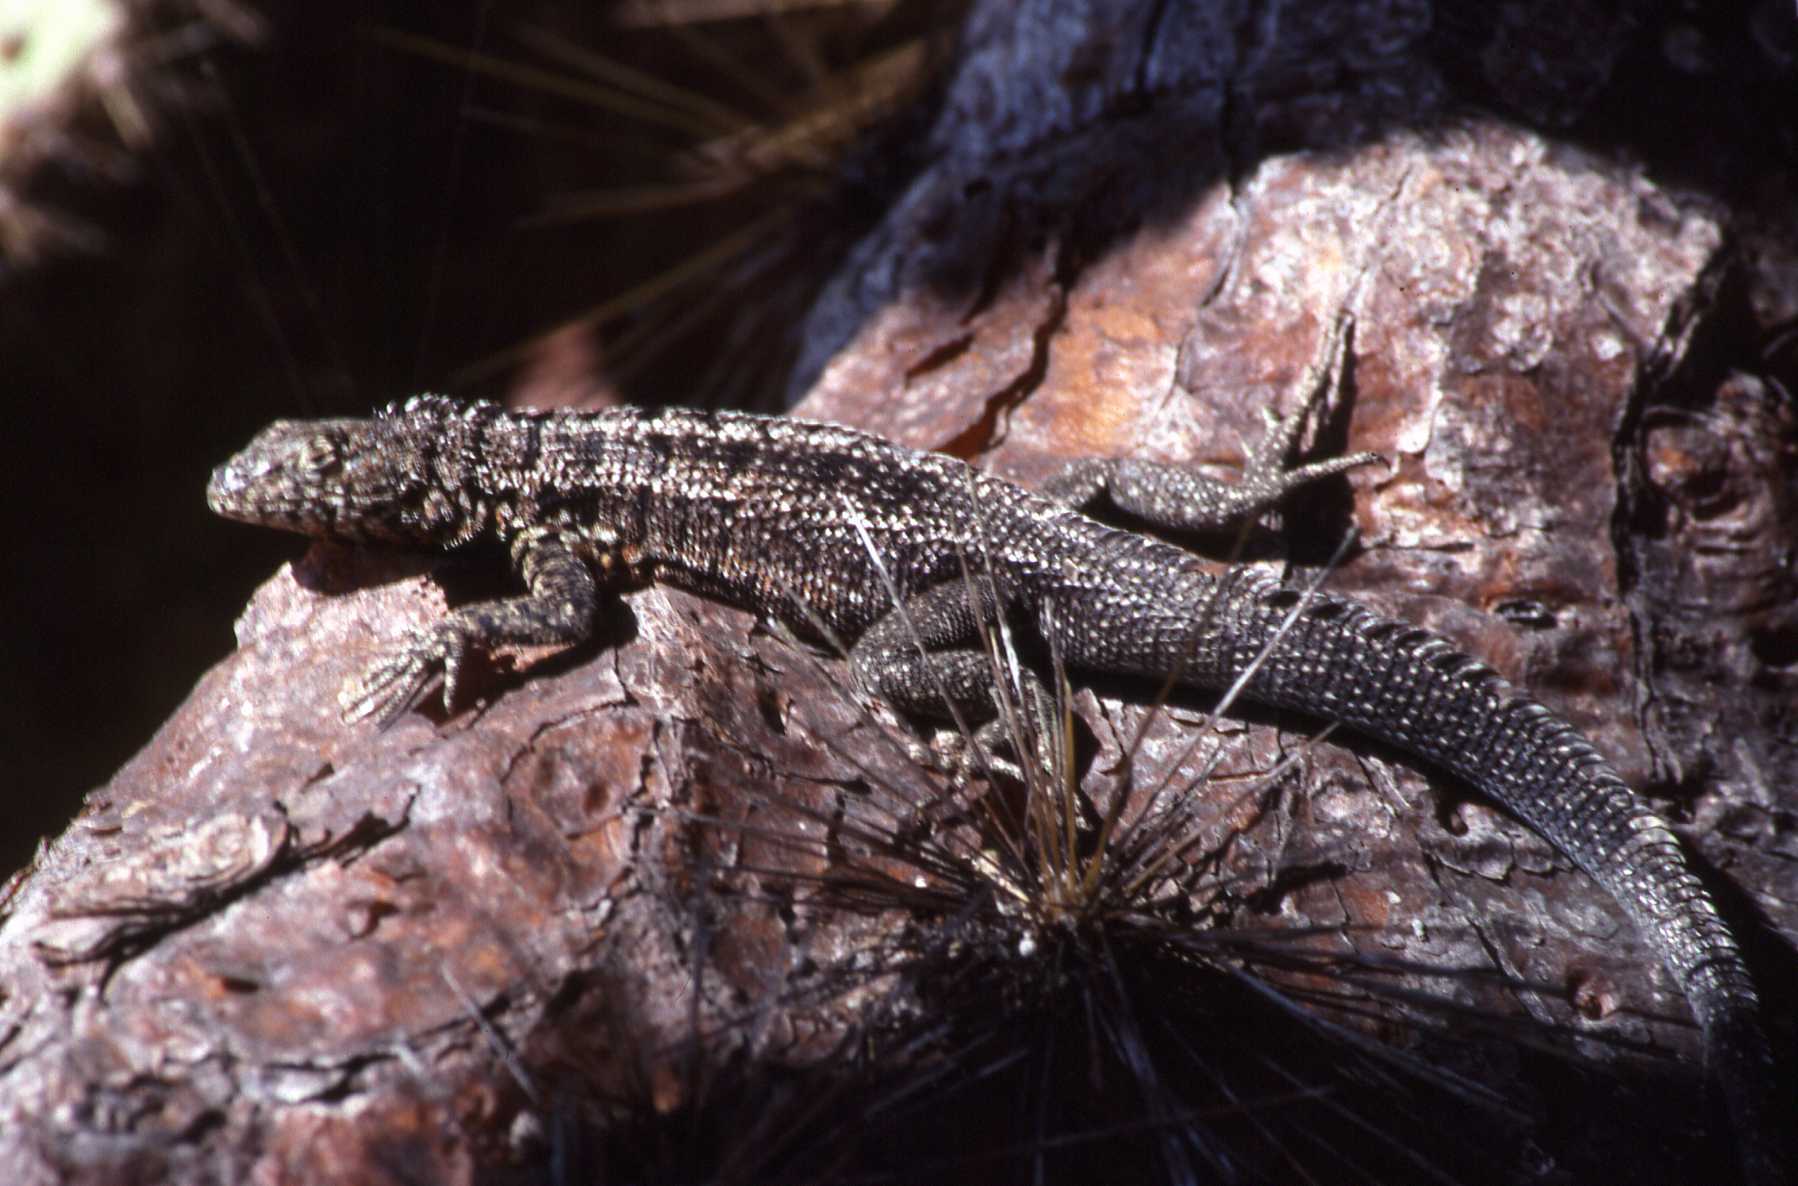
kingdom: Animalia
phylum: Chordata
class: Squamata
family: Tropiduridae
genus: Microlophus
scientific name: Microlophus indefatigabilis
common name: Galapagos lava lizard
